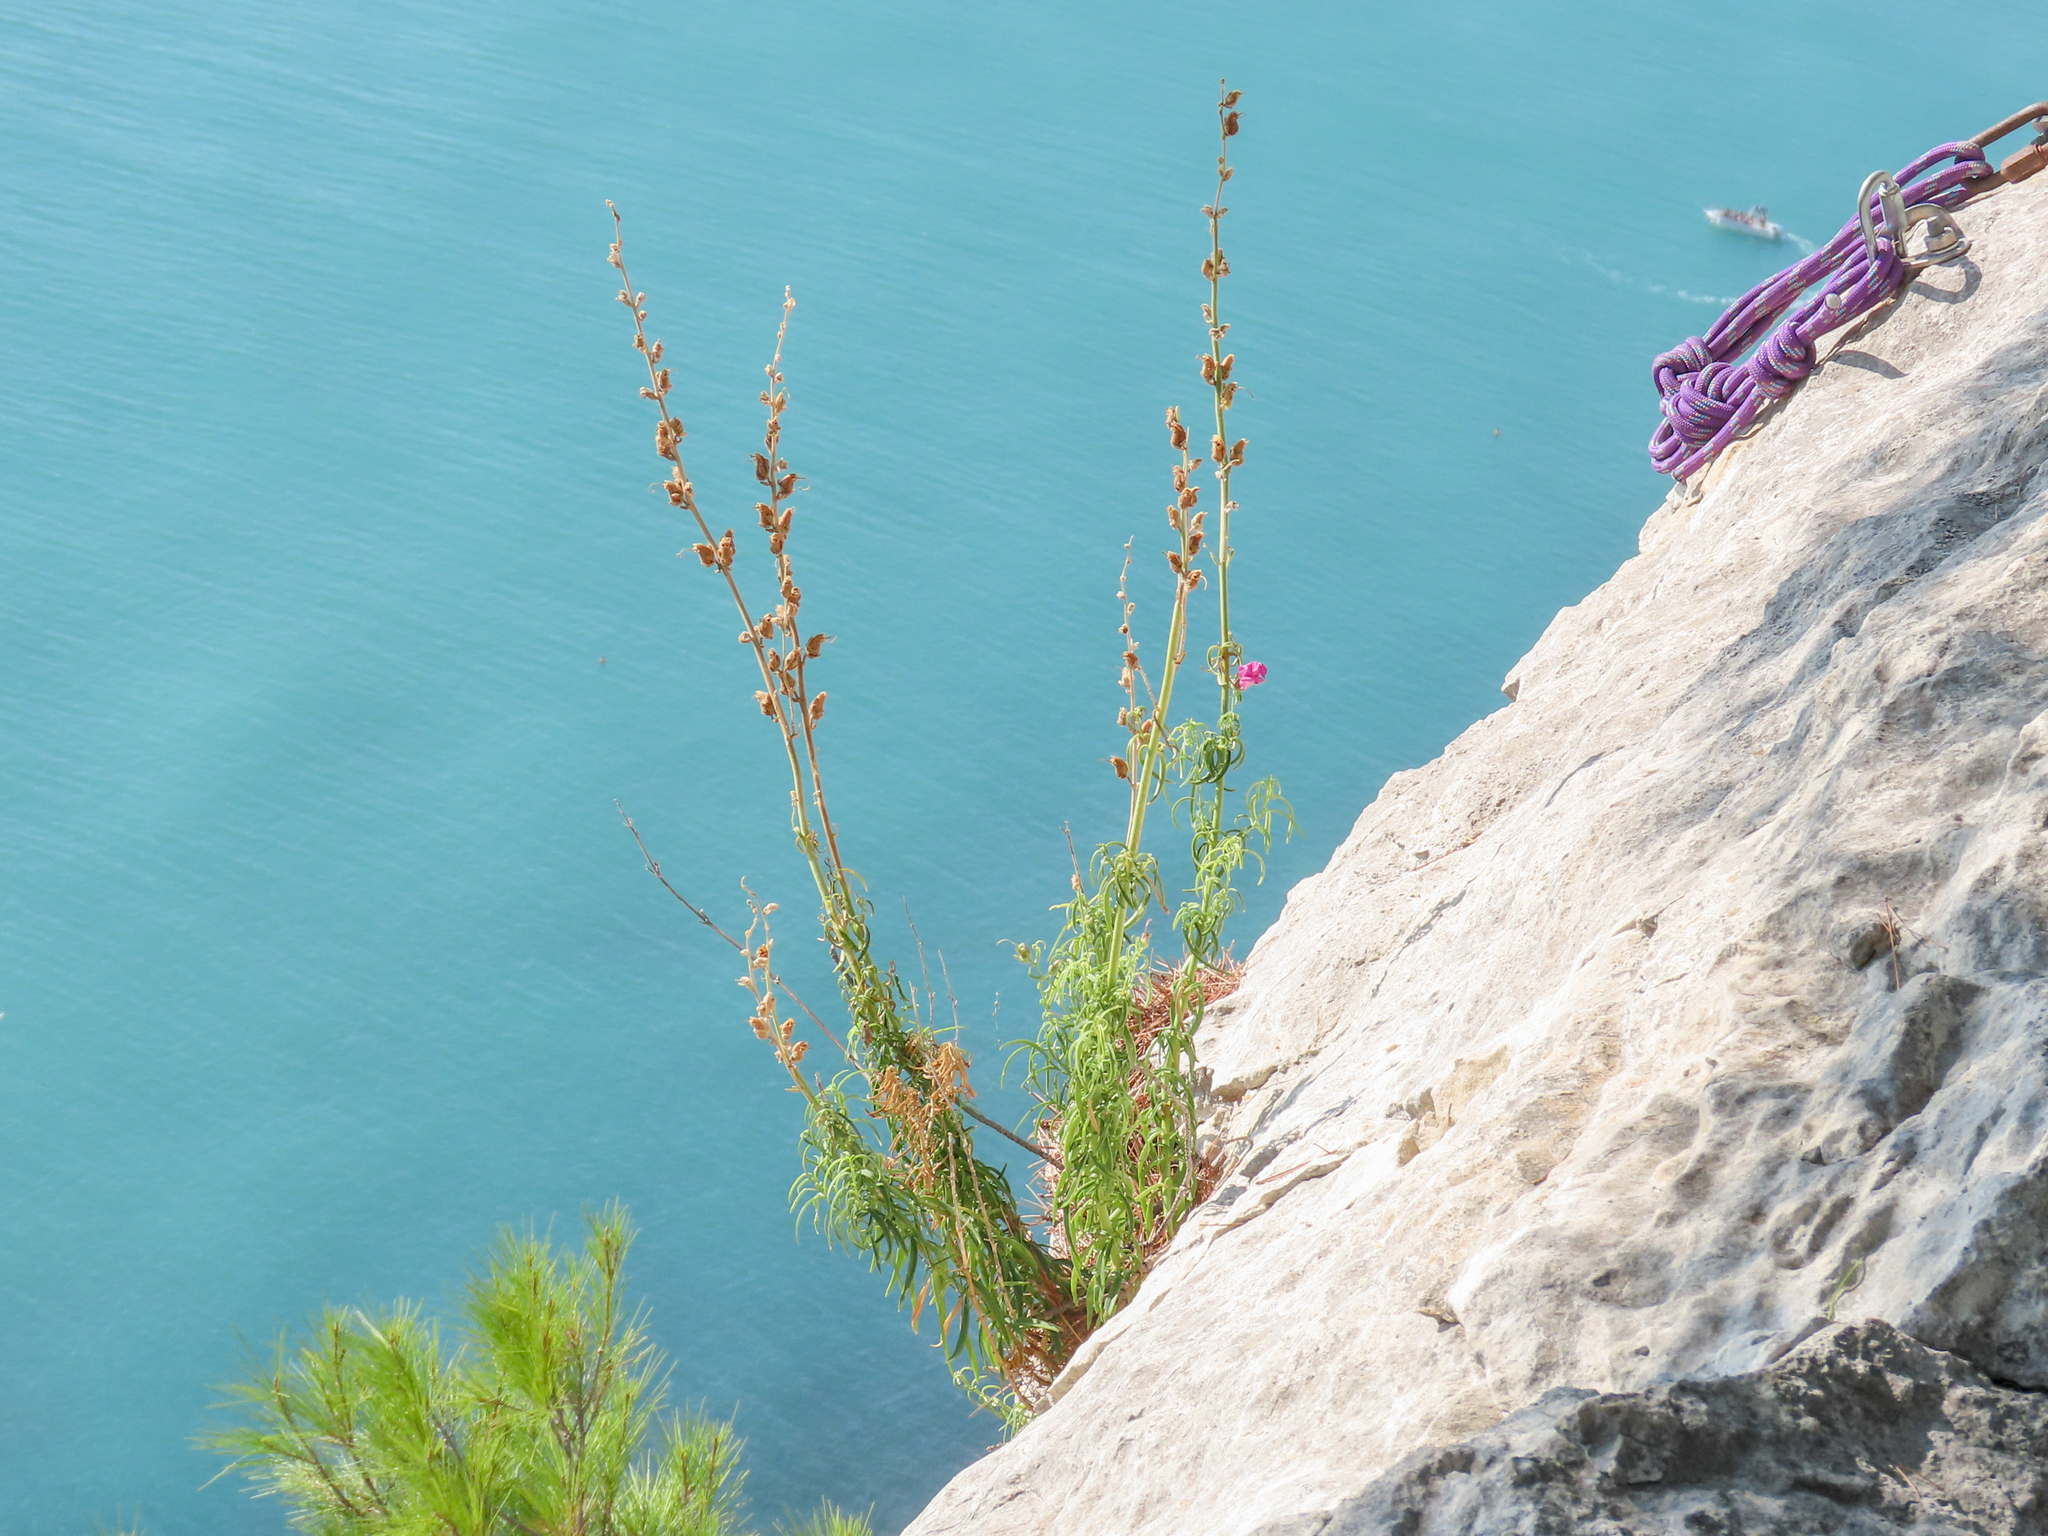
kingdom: Plantae
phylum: Tracheophyta
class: Magnoliopsida
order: Lamiales
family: Plantaginaceae
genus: Antirrhinum
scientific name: Antirrhinum tortuosum
